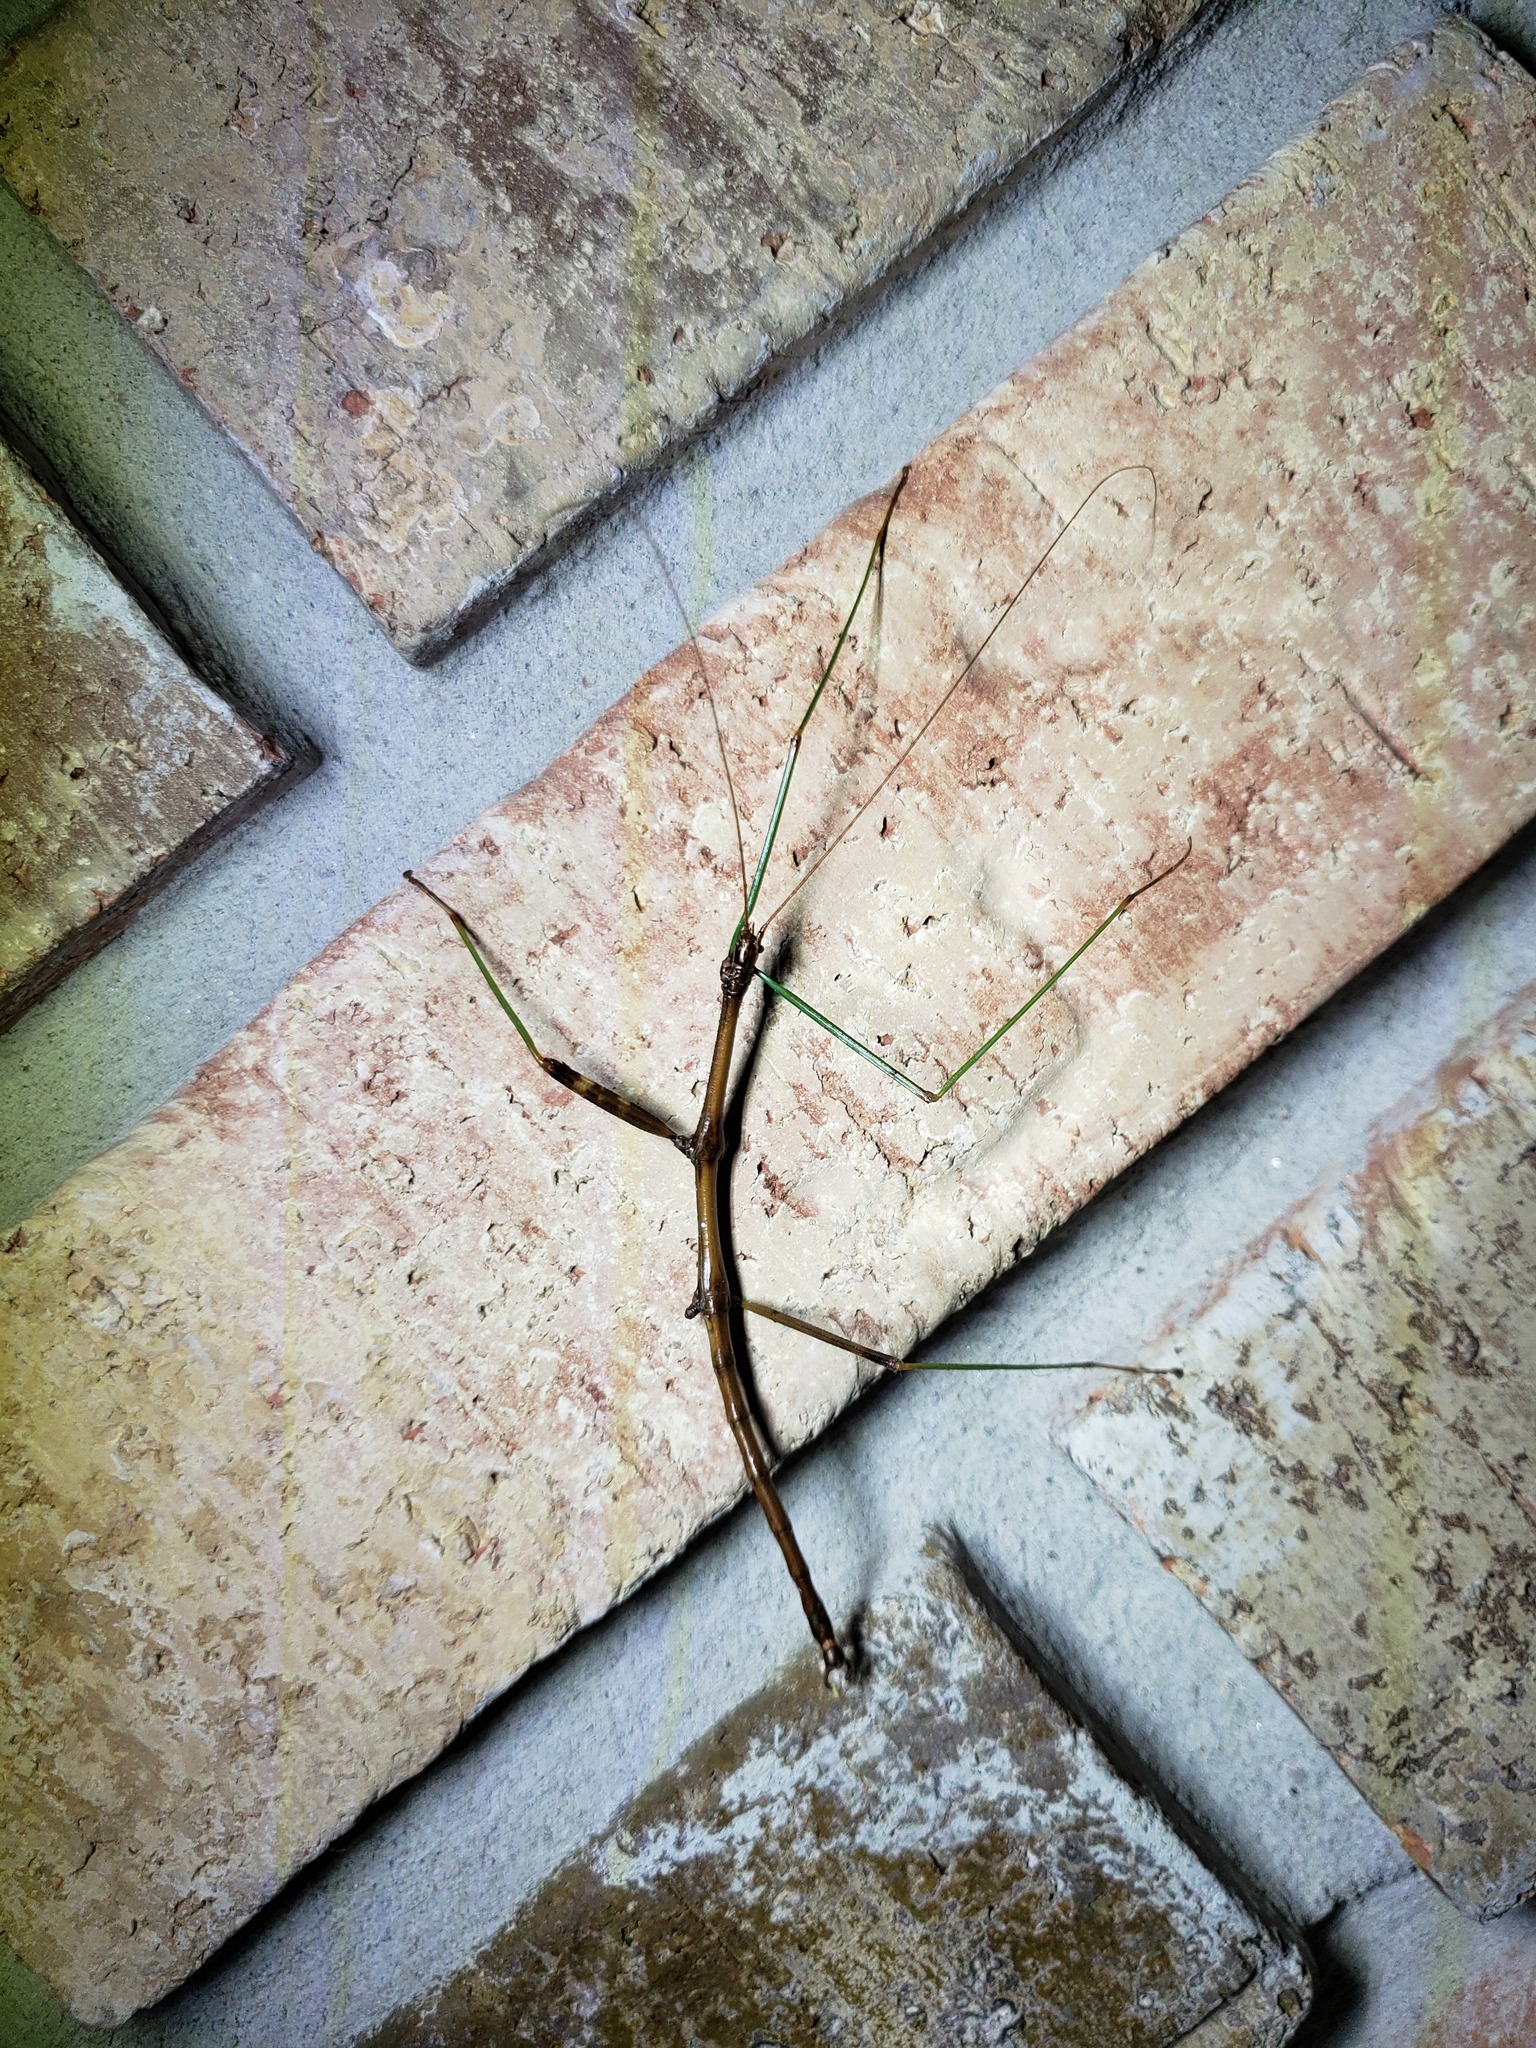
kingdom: Animalia
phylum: Arthropoda
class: Insecta
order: Phasmida
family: Diapheromeridae
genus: Diapheromera
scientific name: Diapheromera femorata
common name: Common american walkingstick
